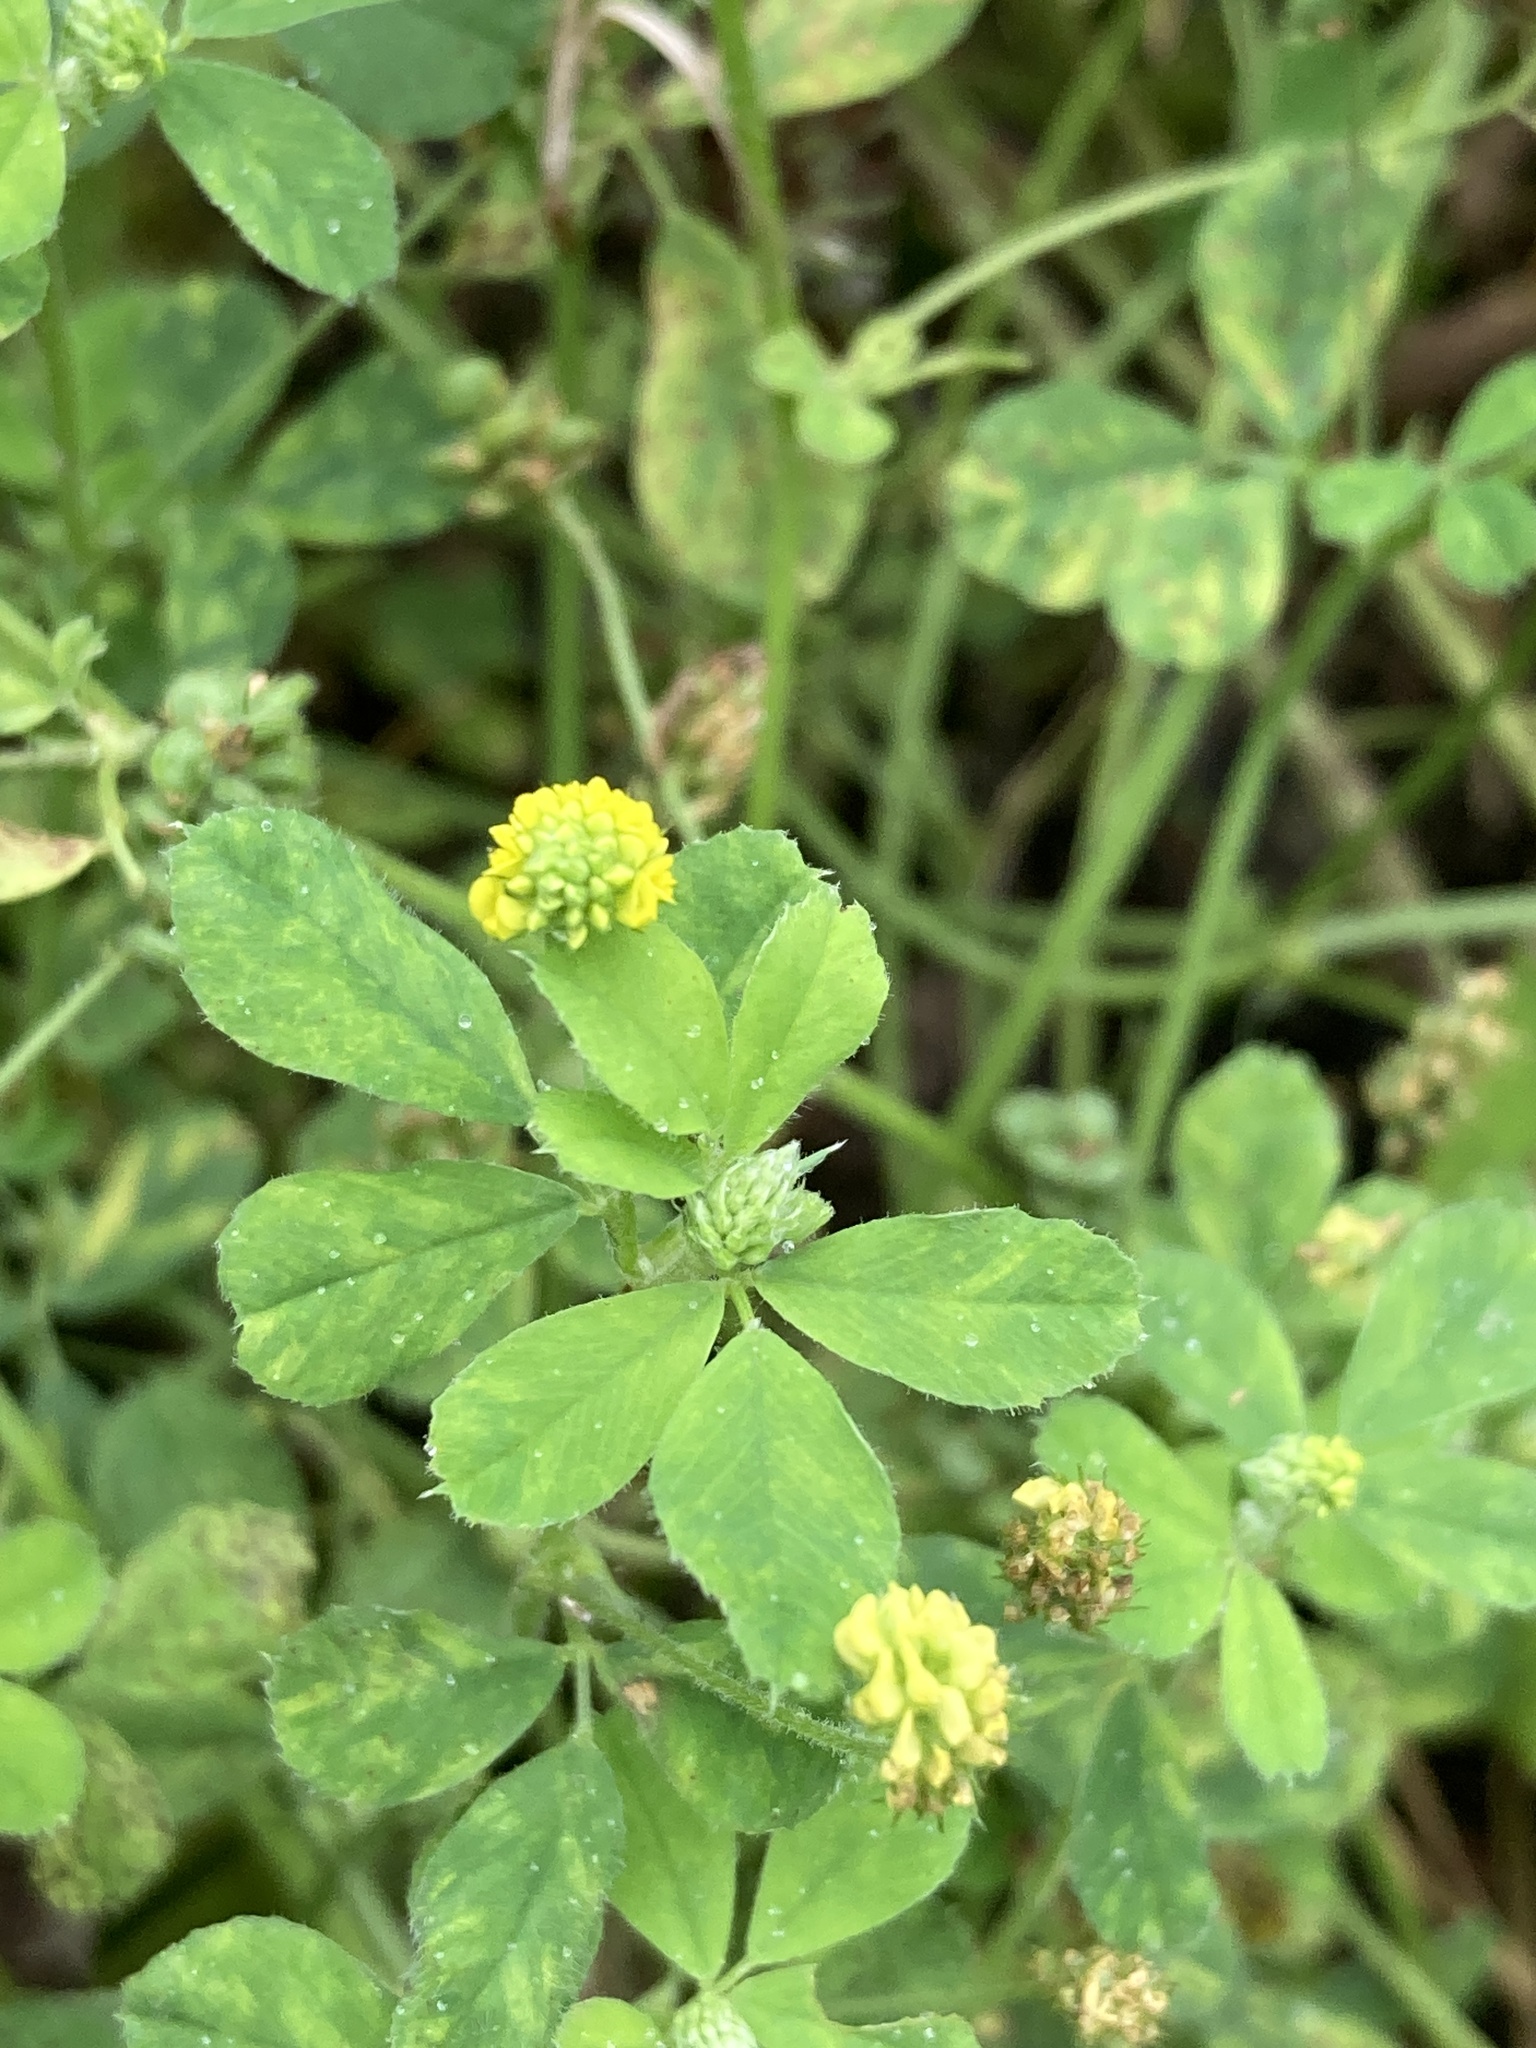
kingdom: Plantae
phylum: Tracheophyta
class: Magnoliopsida
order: Fabales
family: Fabaceae
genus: Medicago
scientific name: Medicago lupulina
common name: Black medick
